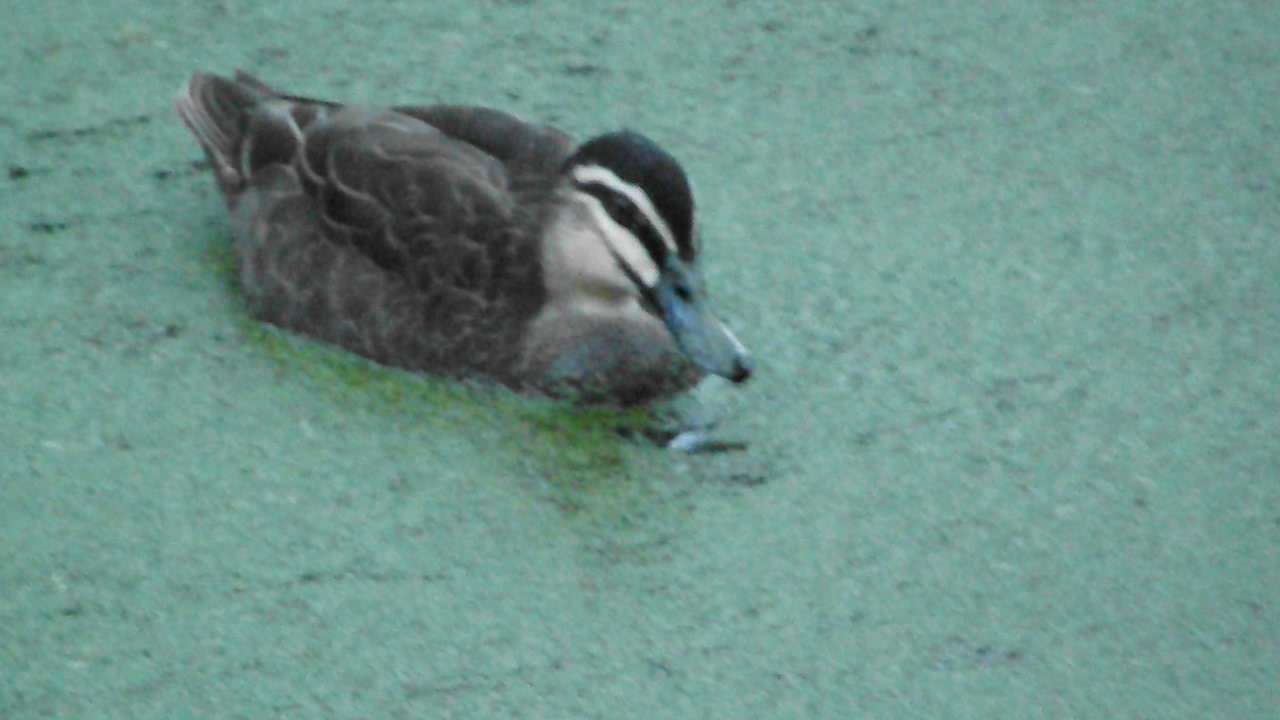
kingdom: Animalia
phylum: Chordata
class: Aves
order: Anseriformes
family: Anatidae
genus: Anas
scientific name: Anas superciliosa
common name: Pacific black duck
